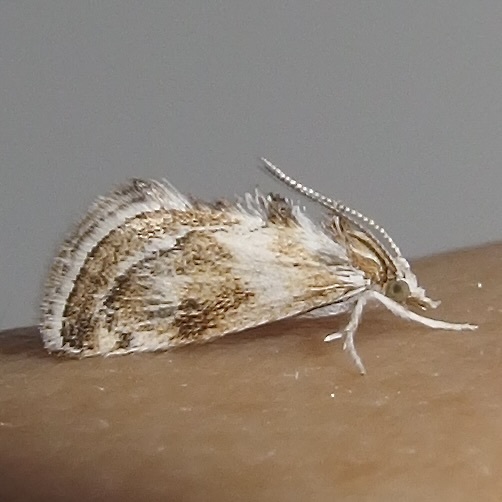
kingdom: Animalia
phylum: Arthropoda
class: Insecta
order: Lepidoptera
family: Crambidae
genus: Frechinia
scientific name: Frechinia laetalis
